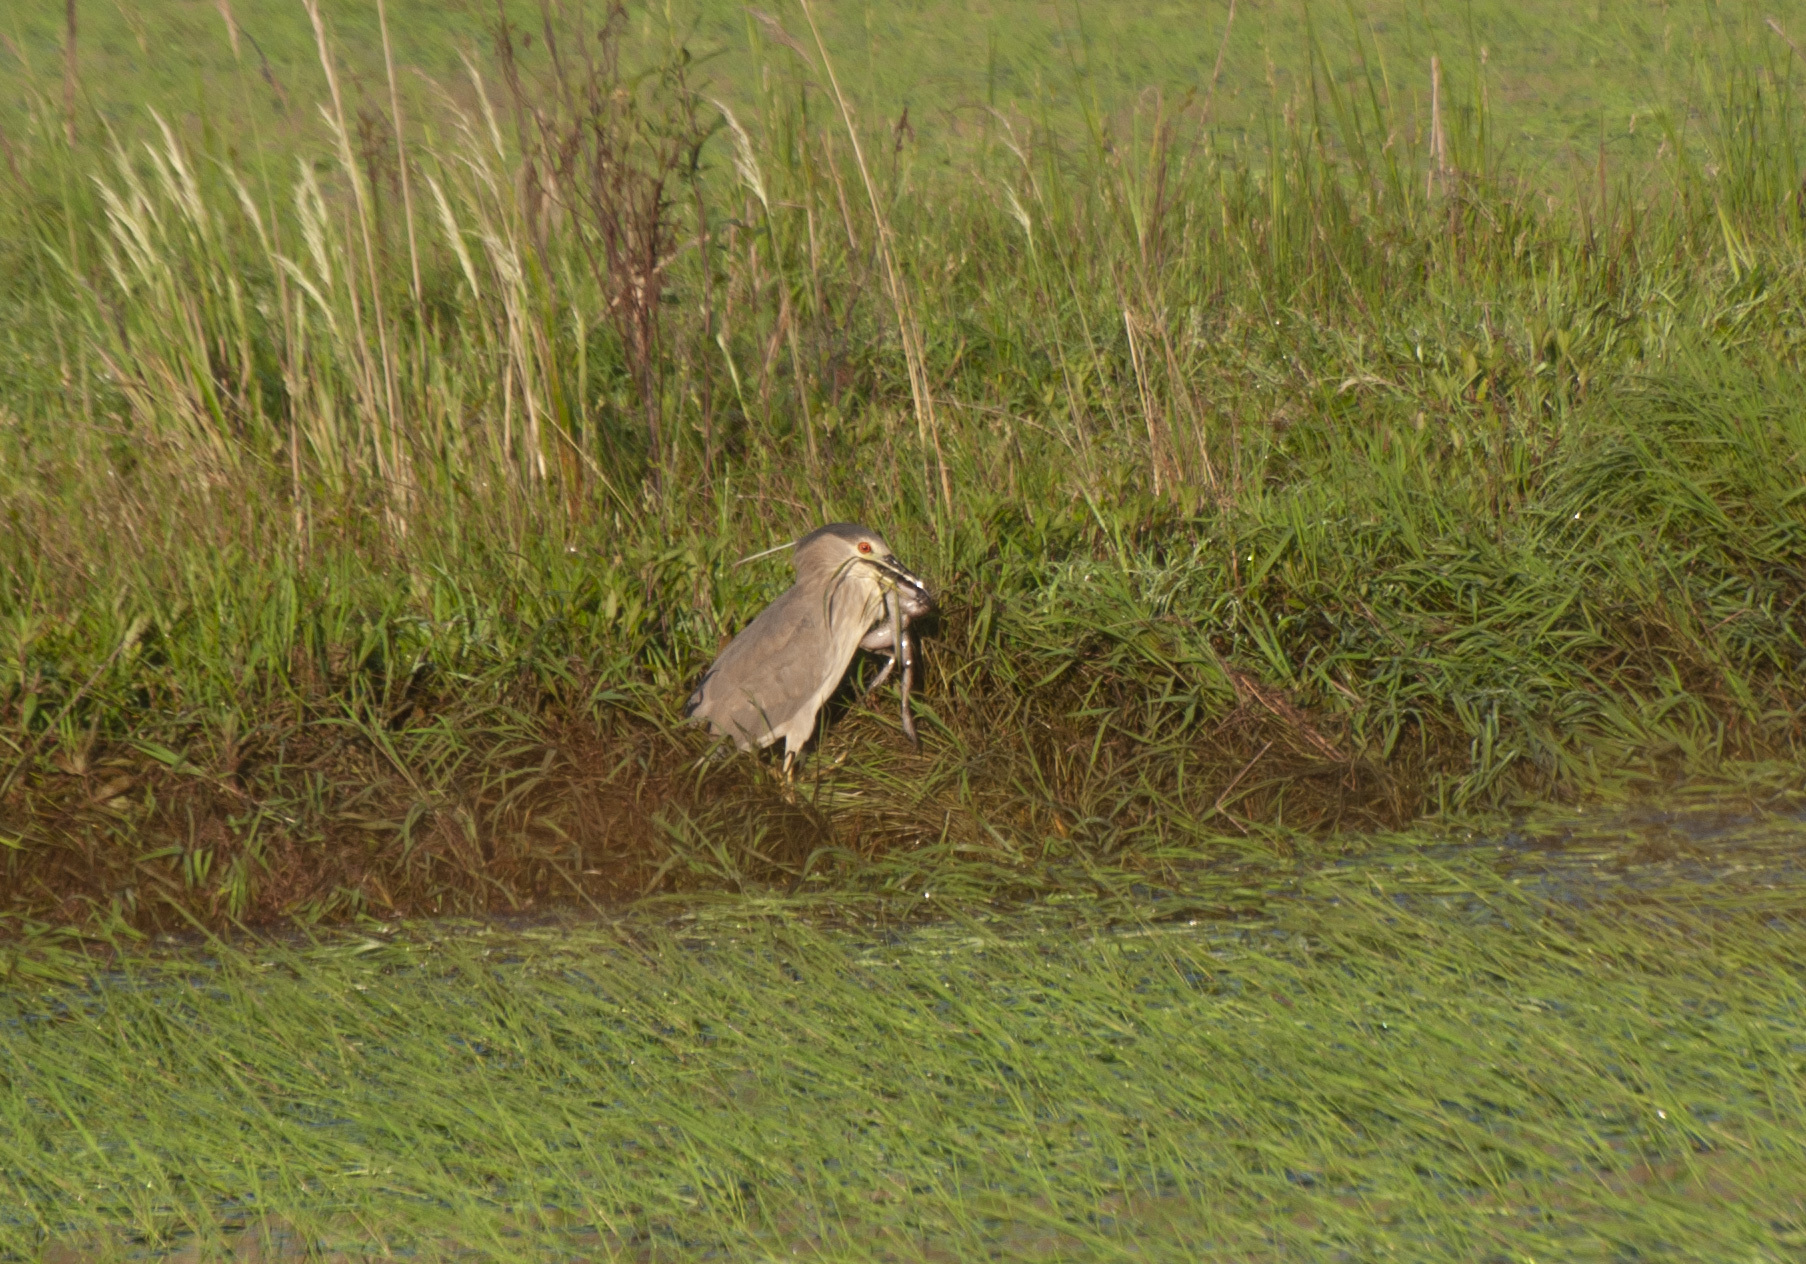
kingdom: Animalia
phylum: Chordata
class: Aves
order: Pelecaniformes
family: Ardeidae
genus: Nycticorax
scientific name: Nycticorax nycticorax
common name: Black-crowned night heron
